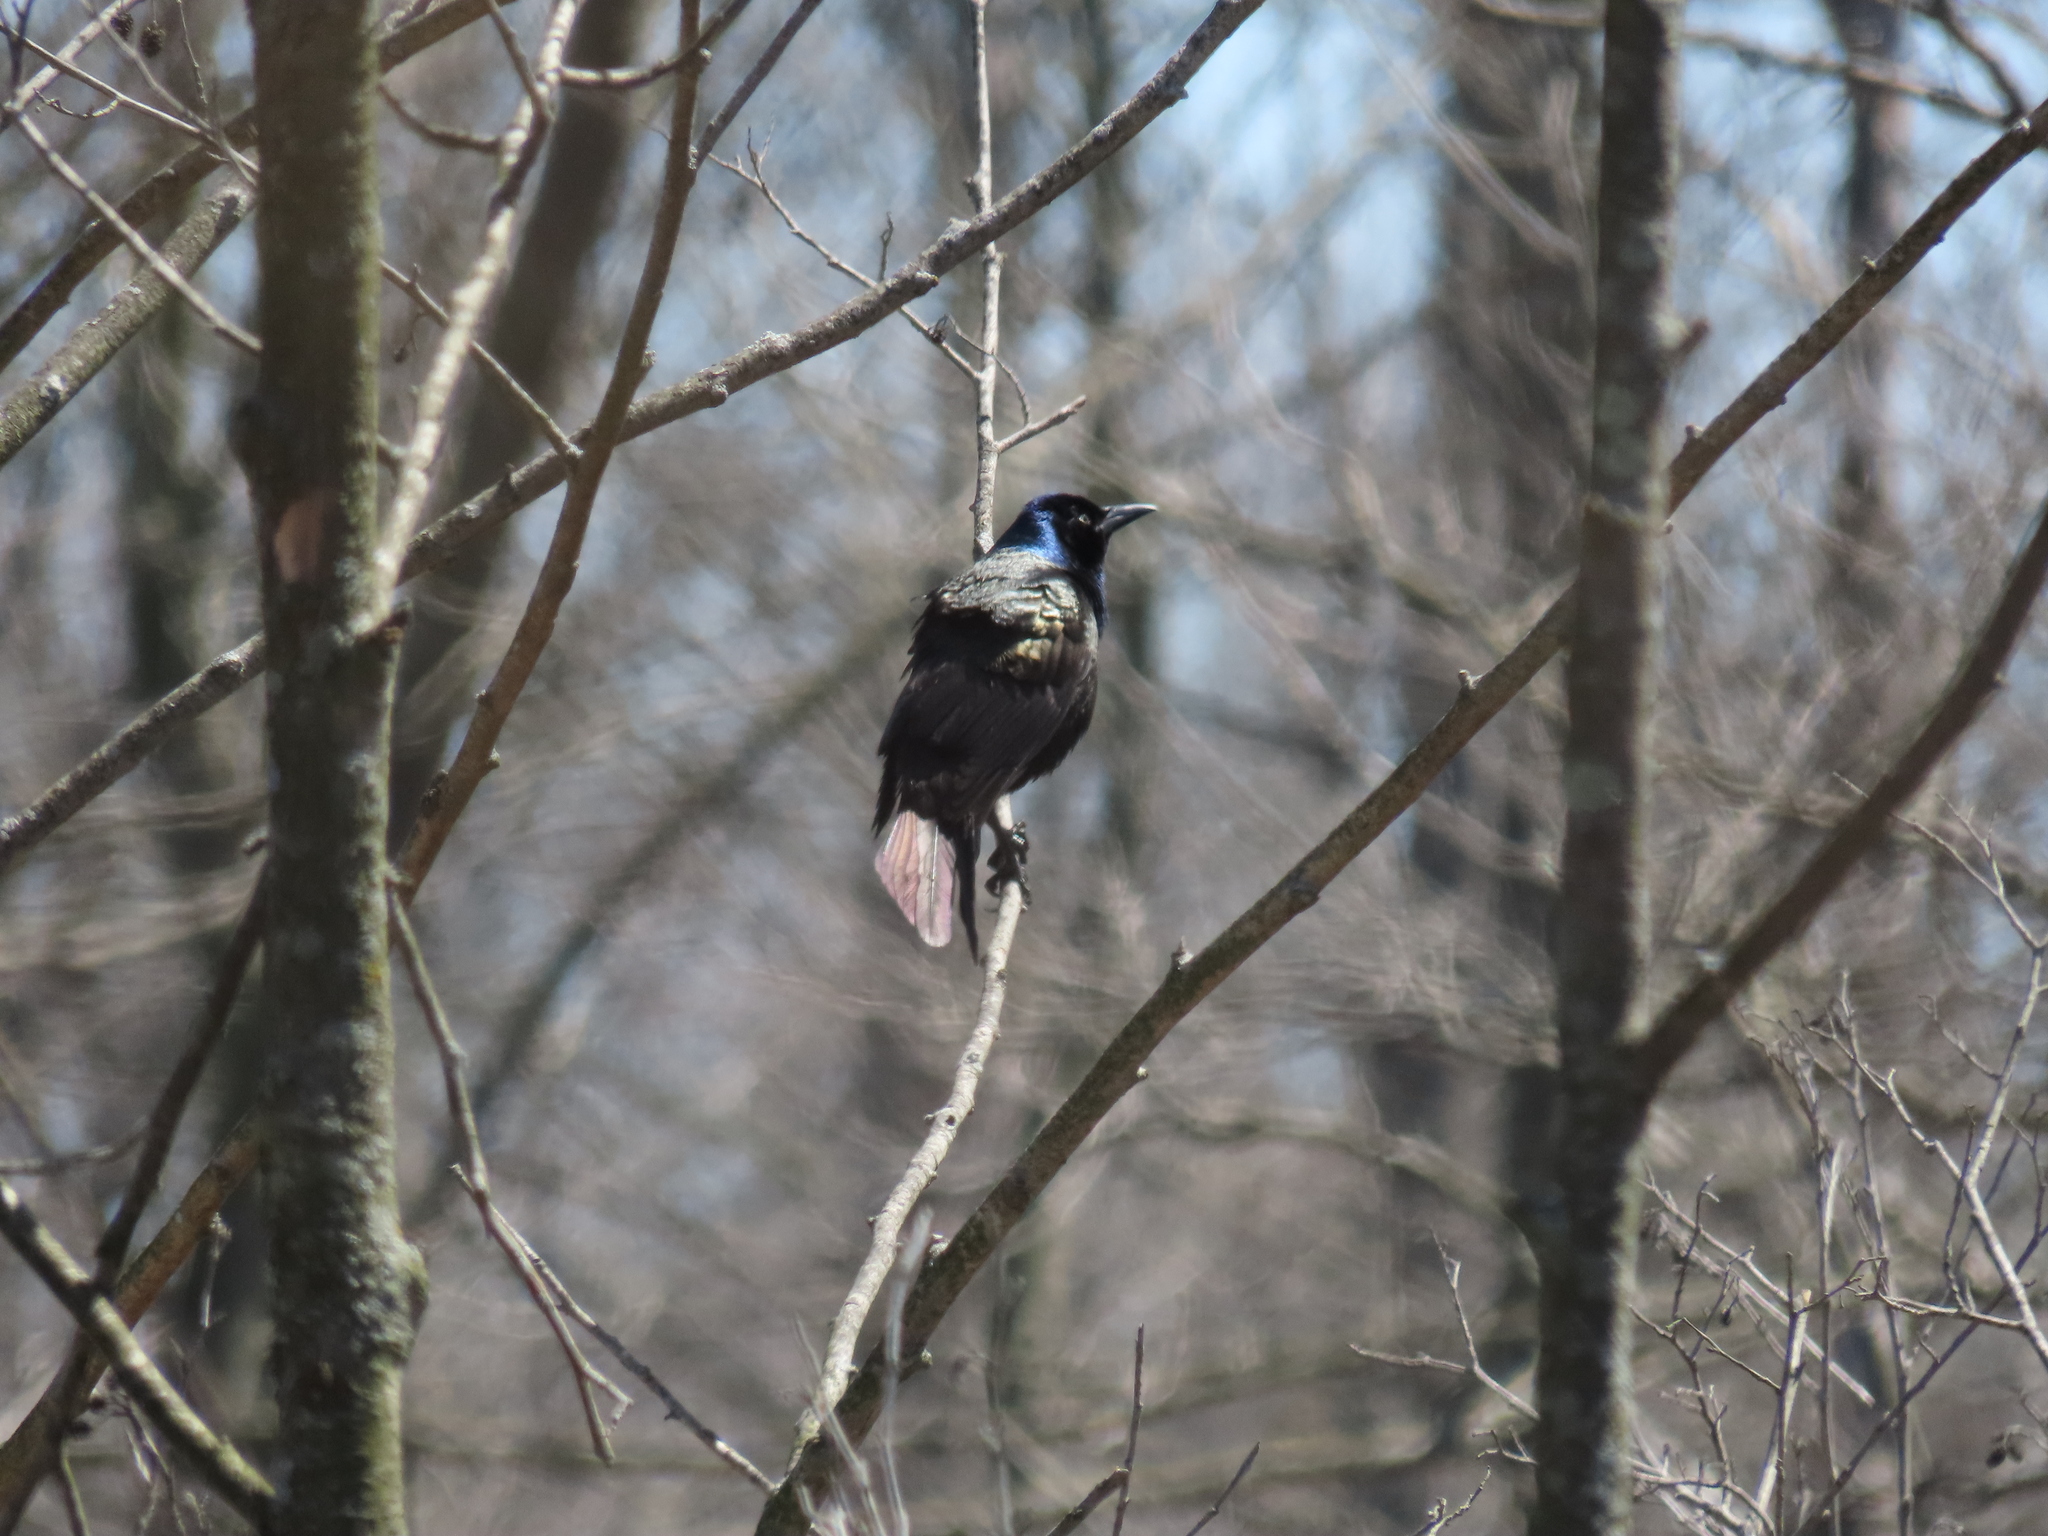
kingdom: Animalia
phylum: Chordata
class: Aves
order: Passeriformes
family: Icteridae
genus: Quiscalus
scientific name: Quiscalus quiscula
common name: Common grackle
